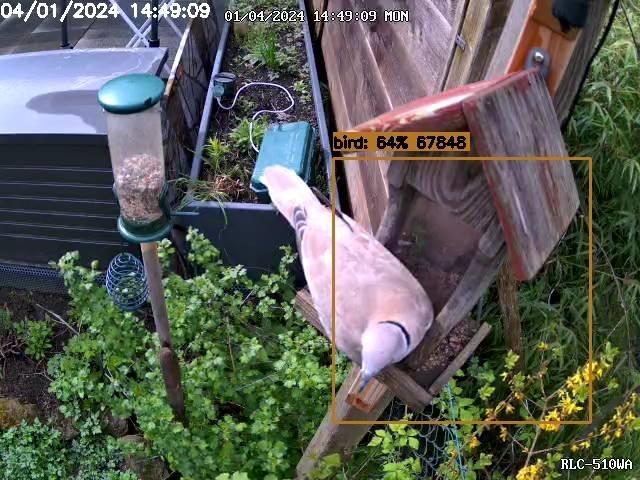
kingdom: Animalia
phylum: Chordata
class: Aves
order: Columbiformes
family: Columbidae
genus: Streptopelia
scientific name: Streptopelia decaocto
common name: Eurasian collared dove
